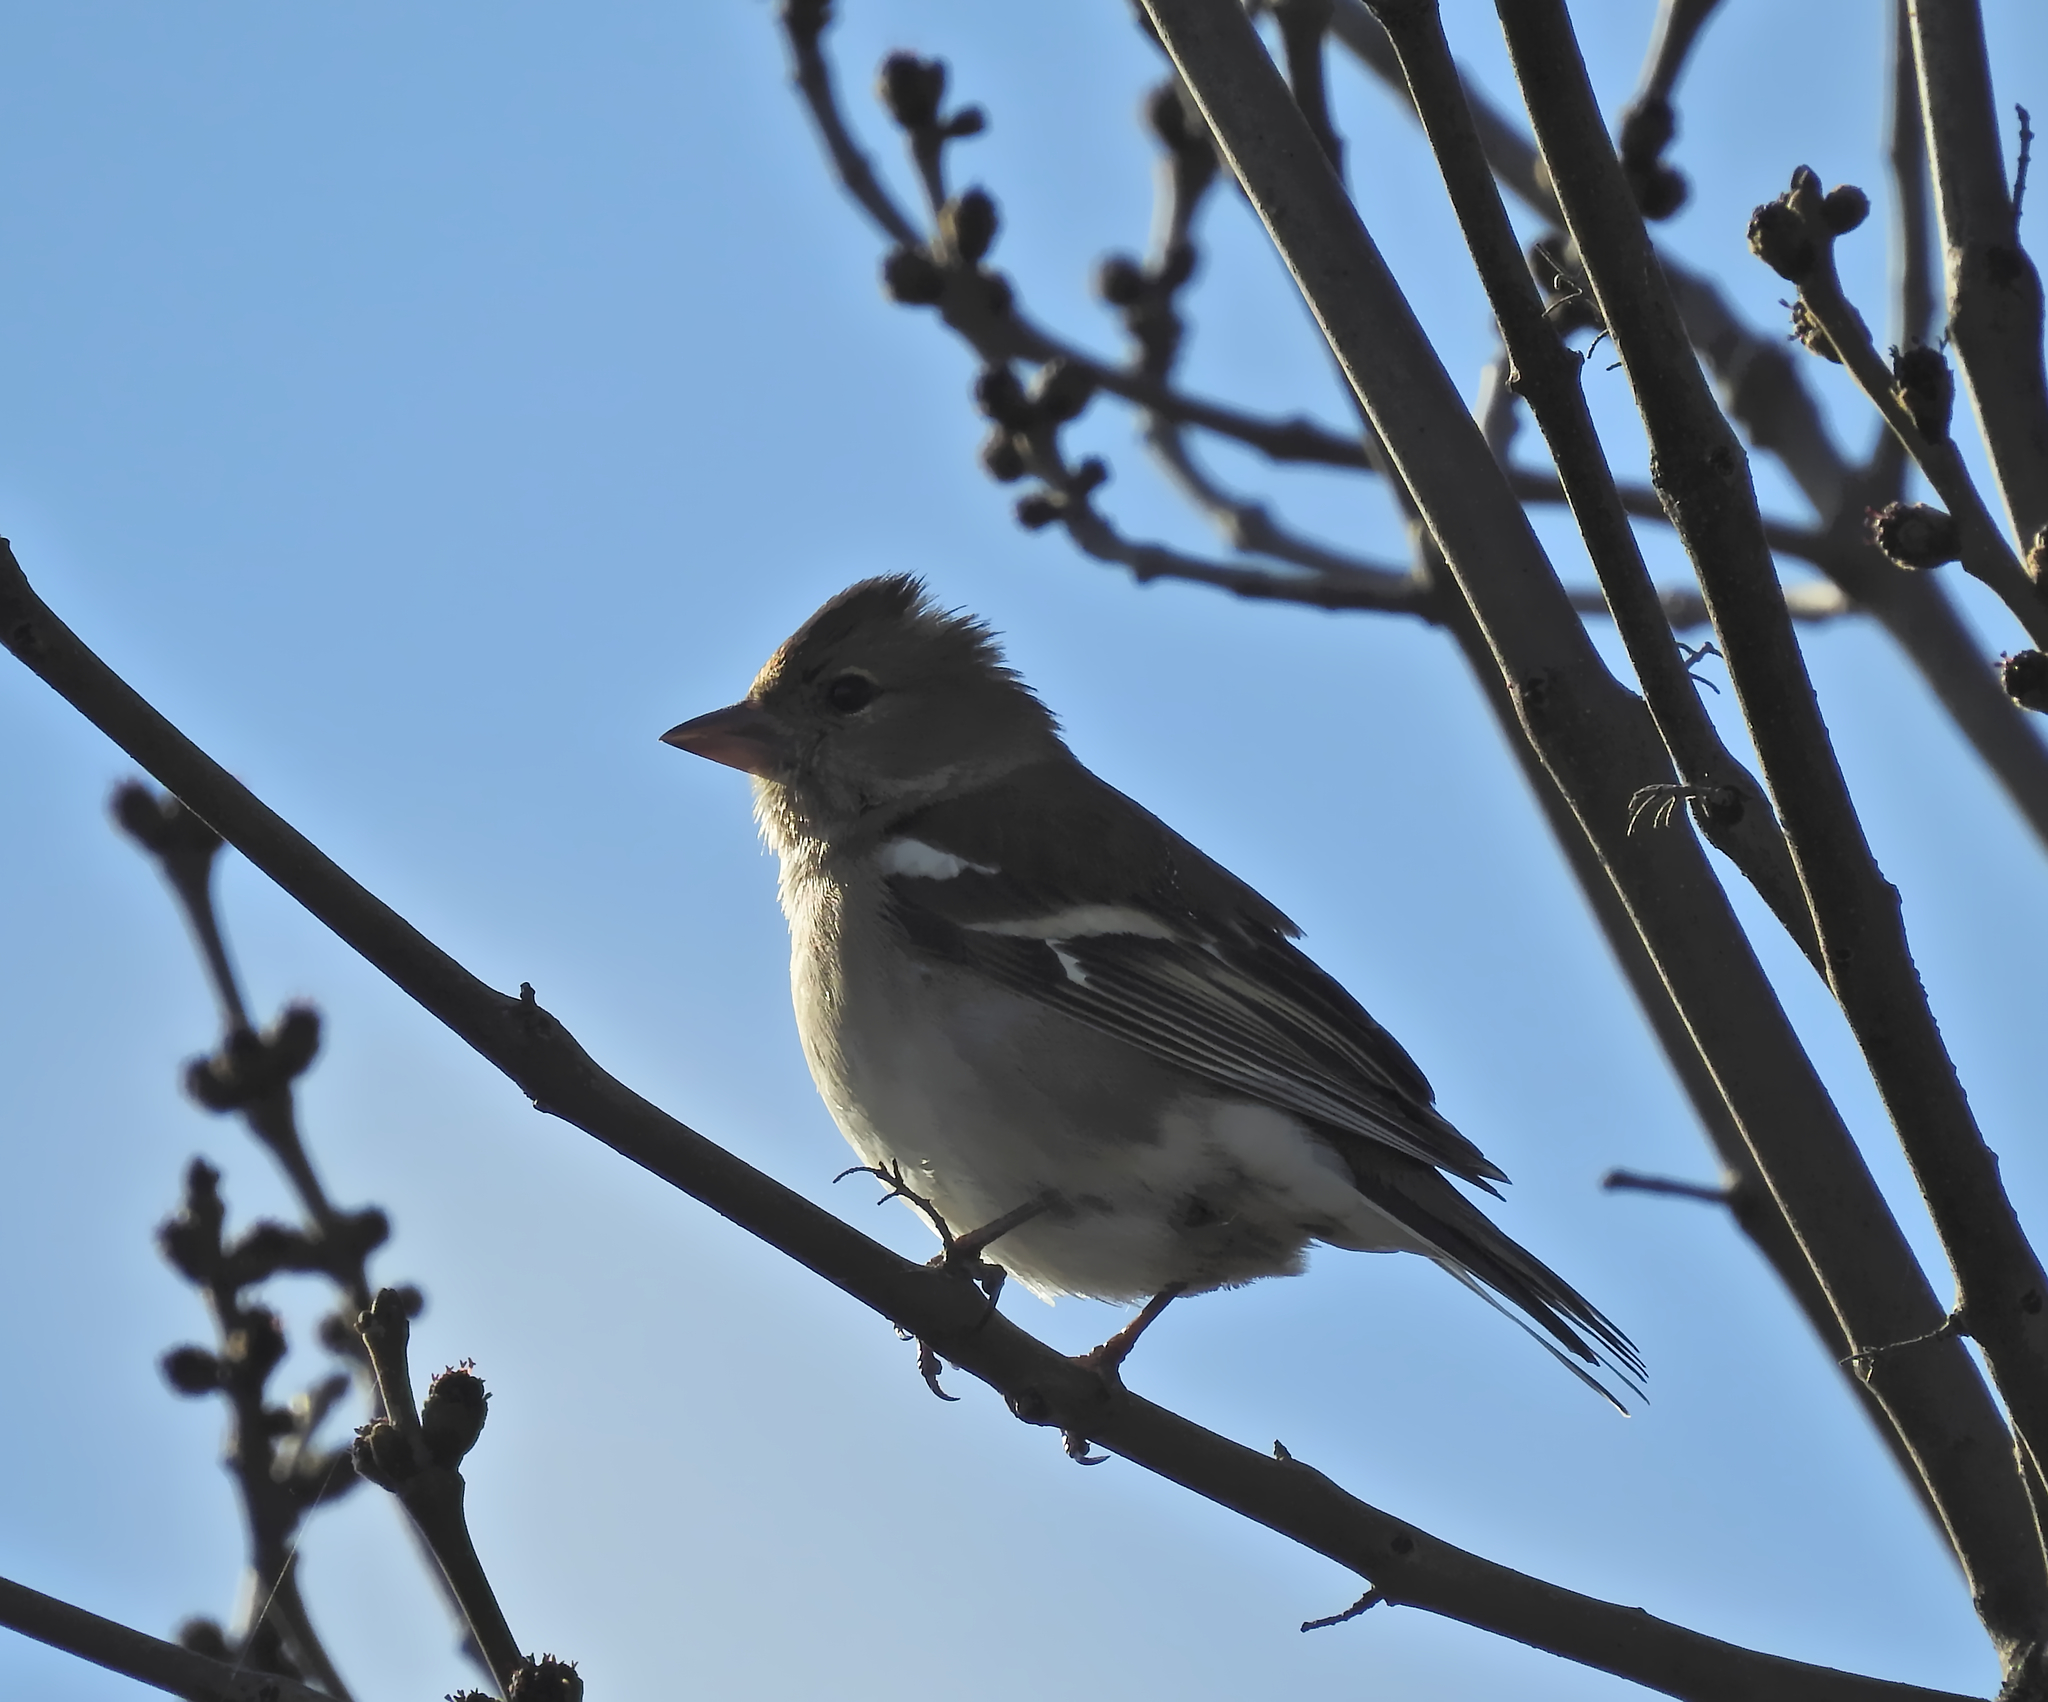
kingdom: Animalia
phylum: Chordata
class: Aves
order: Passeriformes
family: Fringillidae
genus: Fringilla
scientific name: Fringilla coelebs
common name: Common chaffinch
